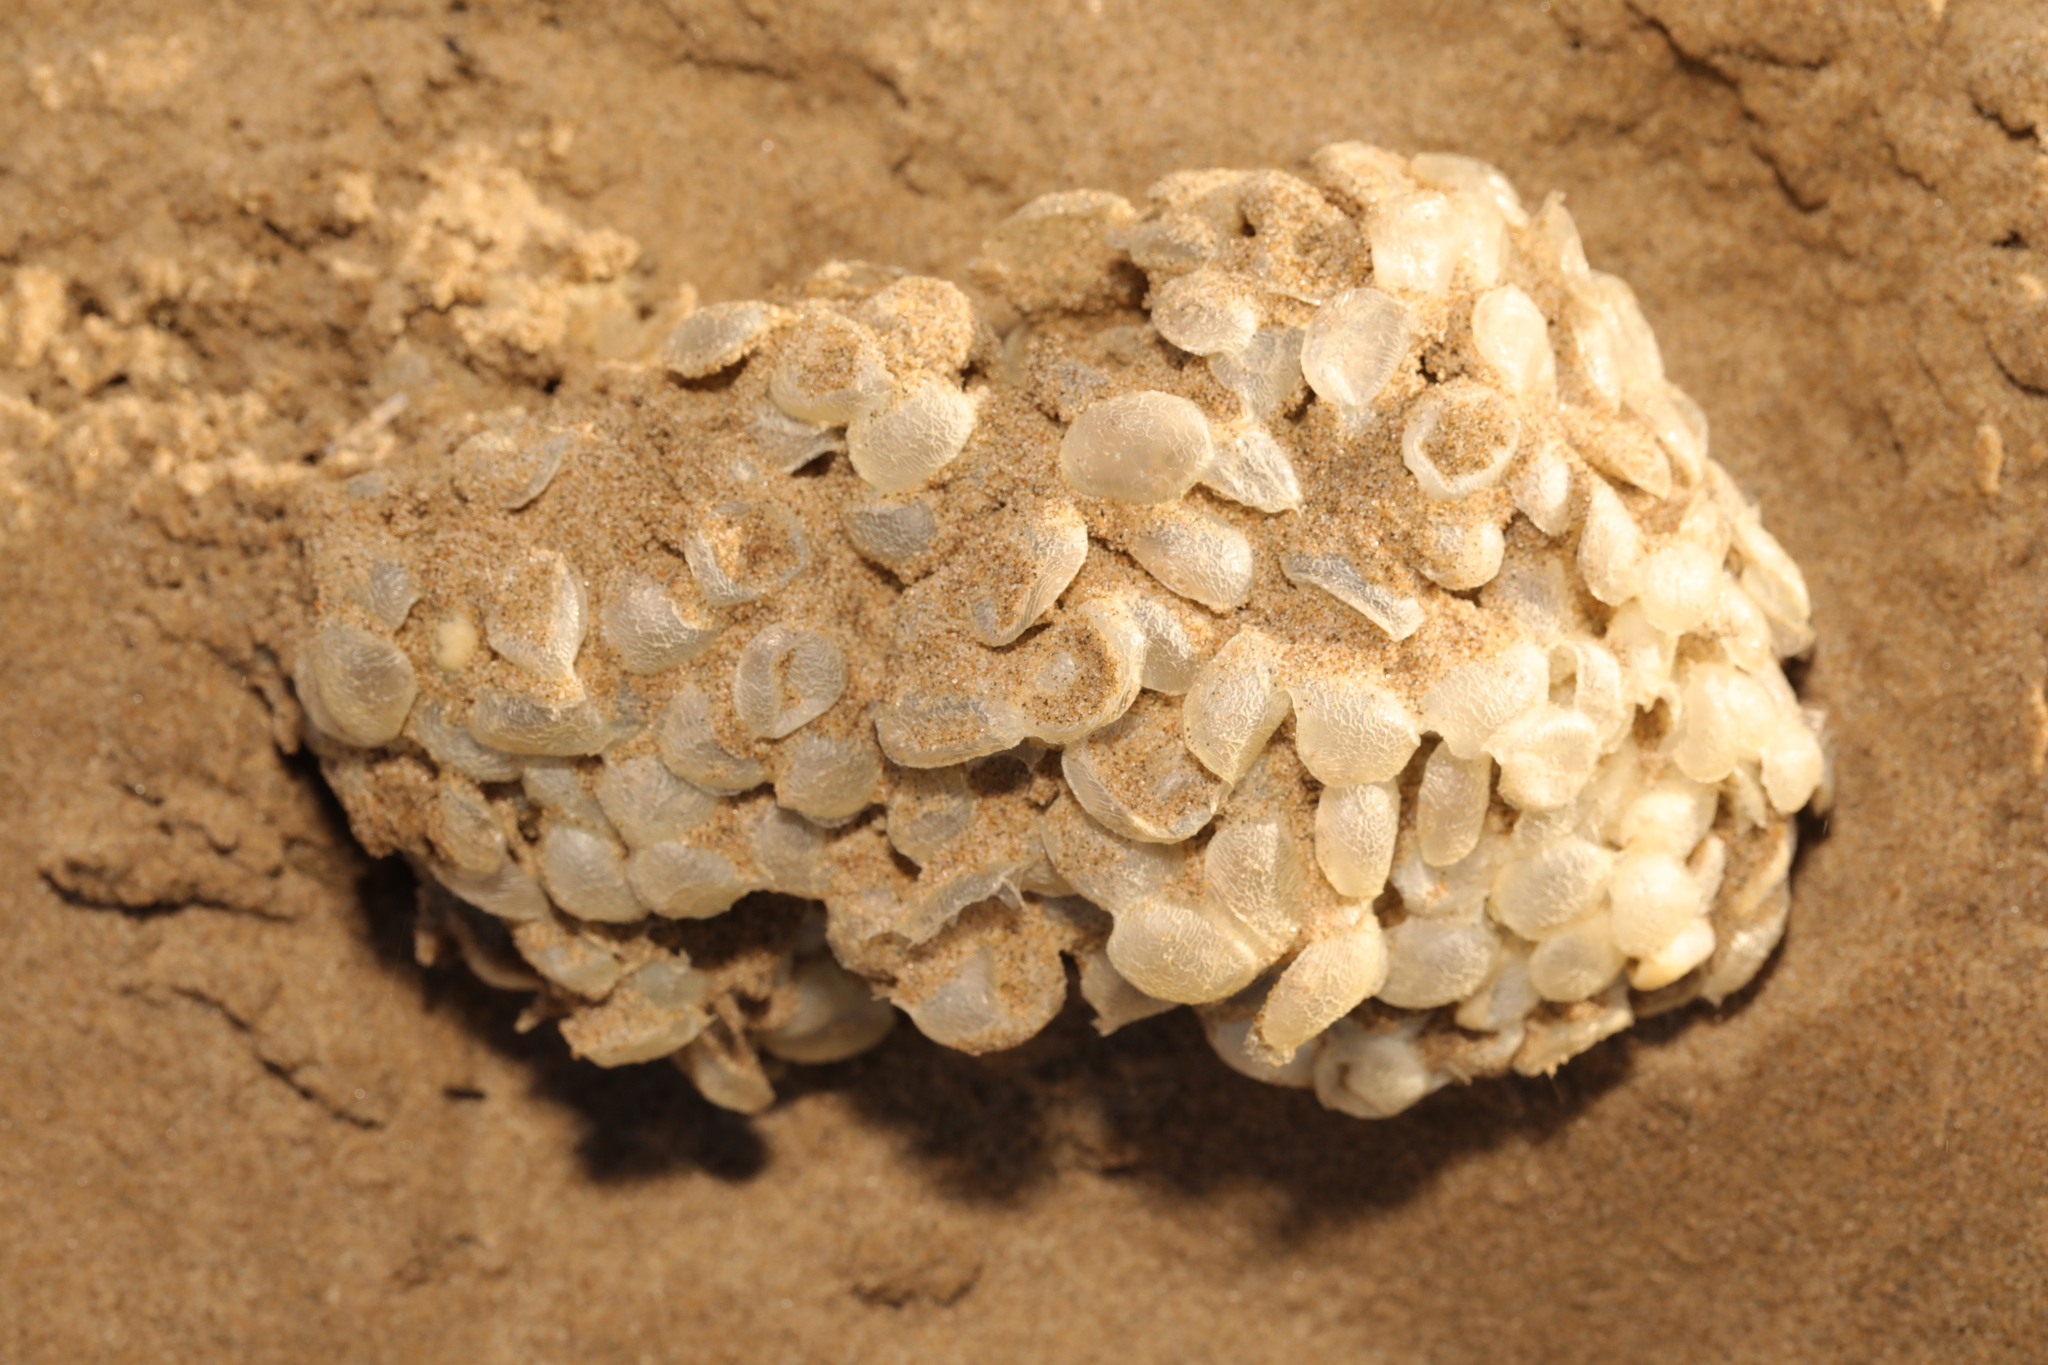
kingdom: Animalia
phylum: Mollusca
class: Gastropoda
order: Neogastropoda
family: Buccinidae
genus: Buccinum
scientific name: Buccinum undatum
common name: Common whelk
